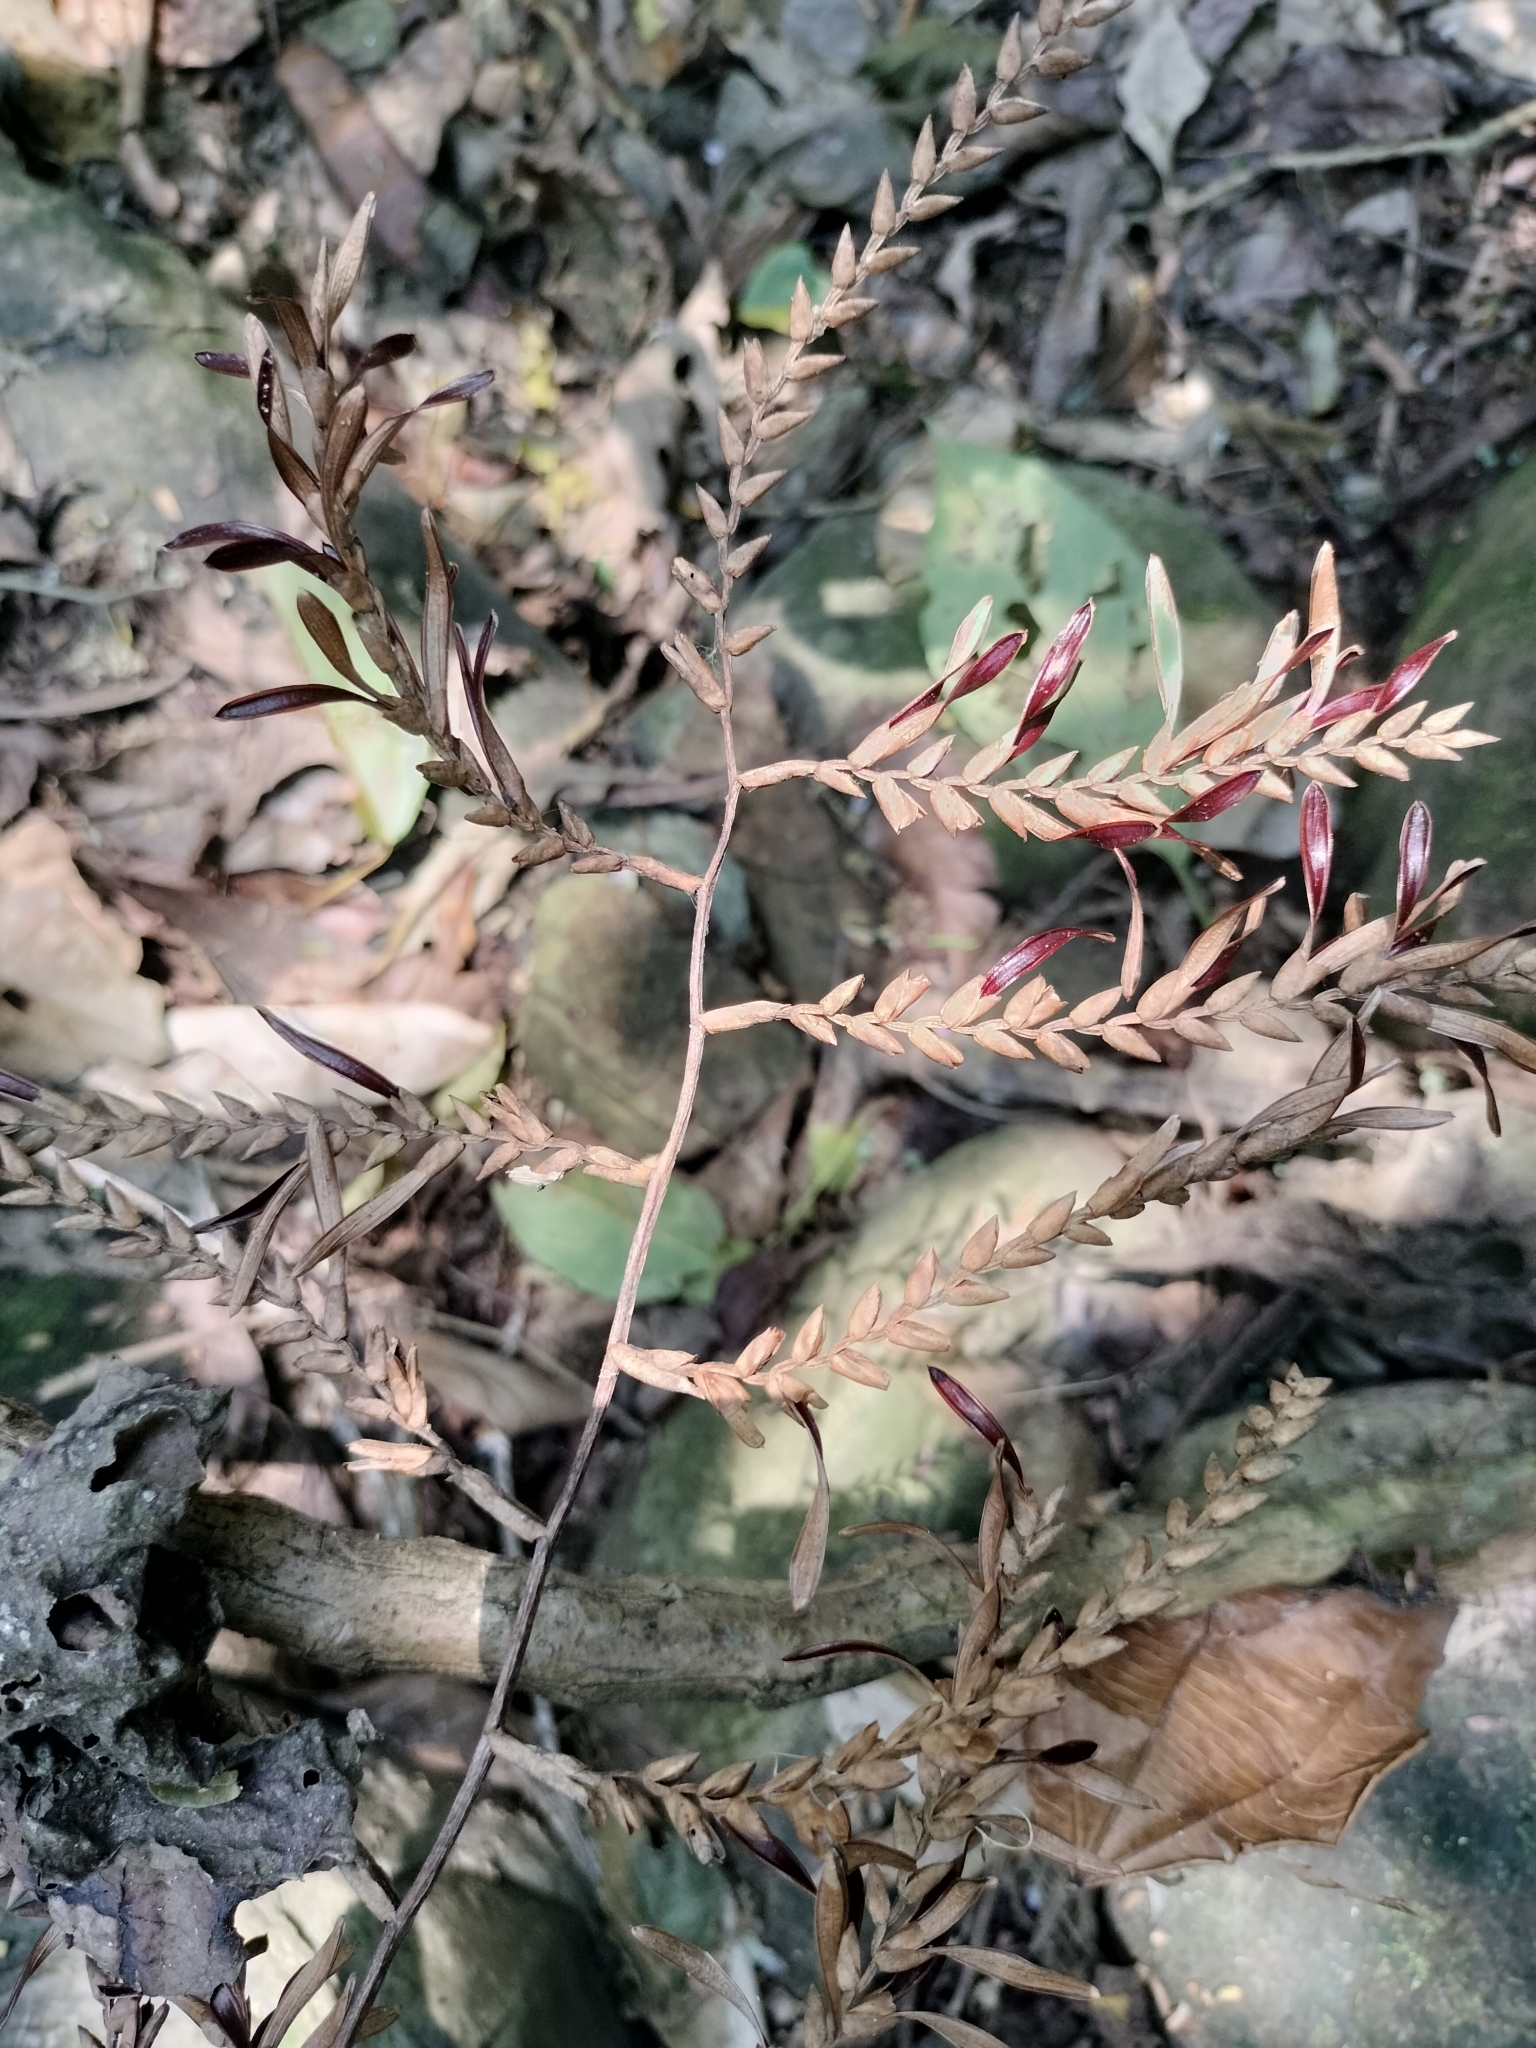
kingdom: Plantae
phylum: Tracheophyta
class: Liliopsida
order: Poales
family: Bromeliaceae
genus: Racinaea
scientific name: Racinaea spiculosa
